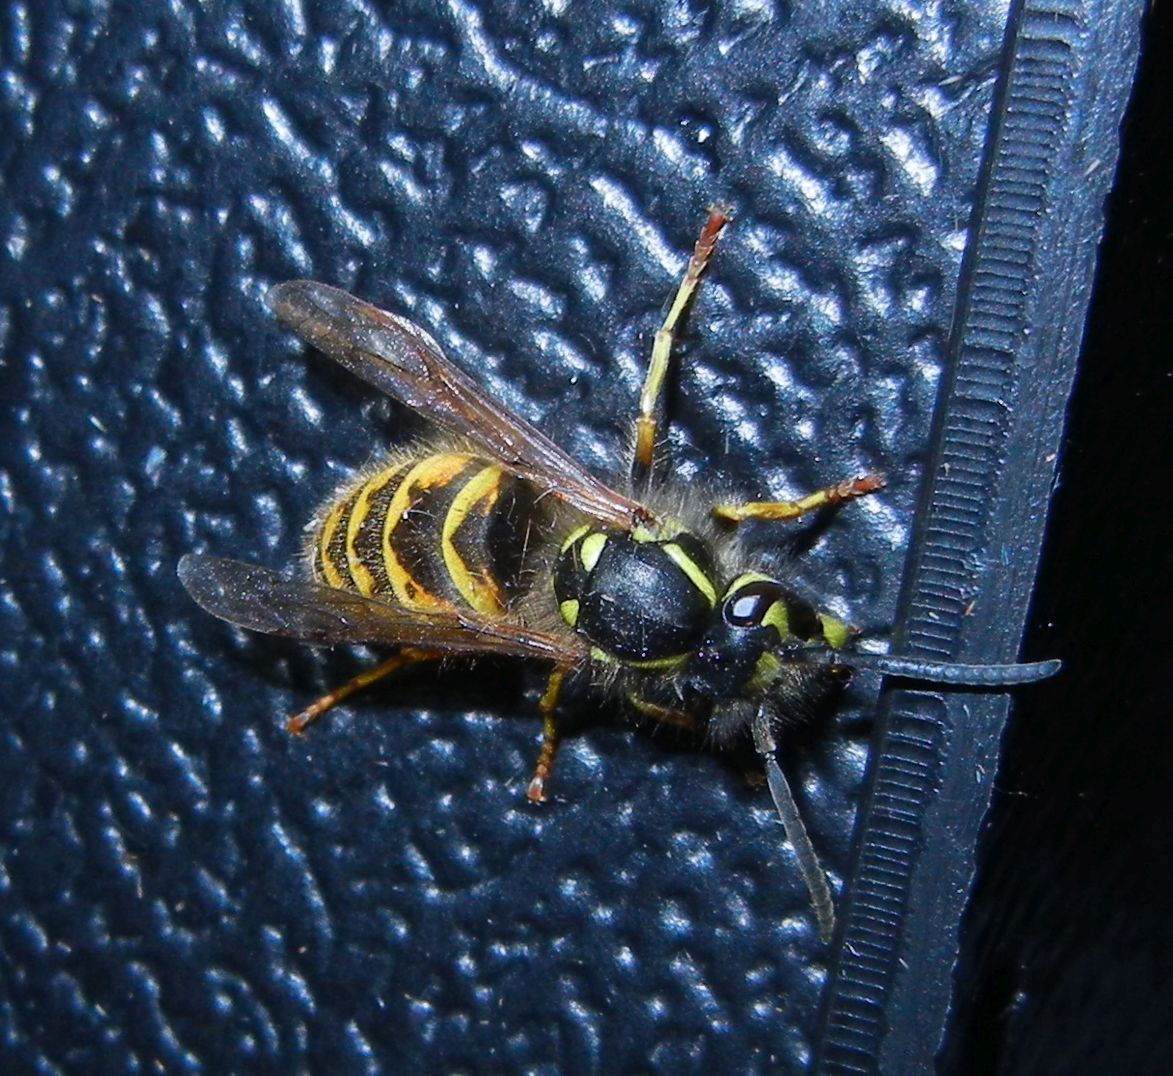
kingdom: Animalia
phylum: Arthropoda
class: Insecta
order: Hymenoptera
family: Vespidae
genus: Vespula
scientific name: Vespula vulgaris
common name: Common wasp
